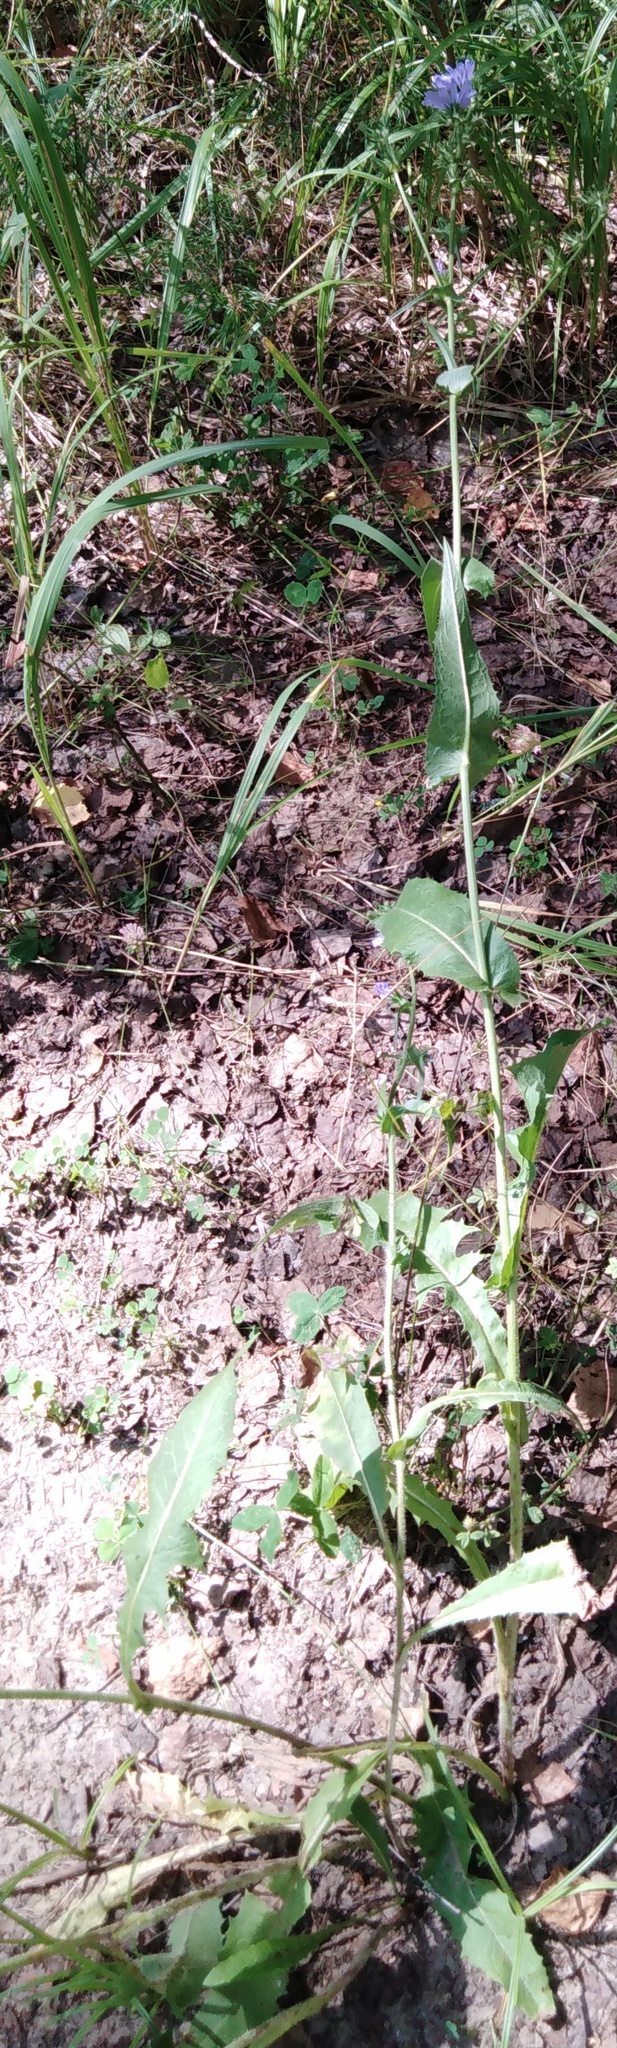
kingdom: Plantae
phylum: Tracheophyta
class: Magnoliopsida
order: Asterales
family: Asteraceae
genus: Cichorium
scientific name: Cichorium intybus
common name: Chicory
